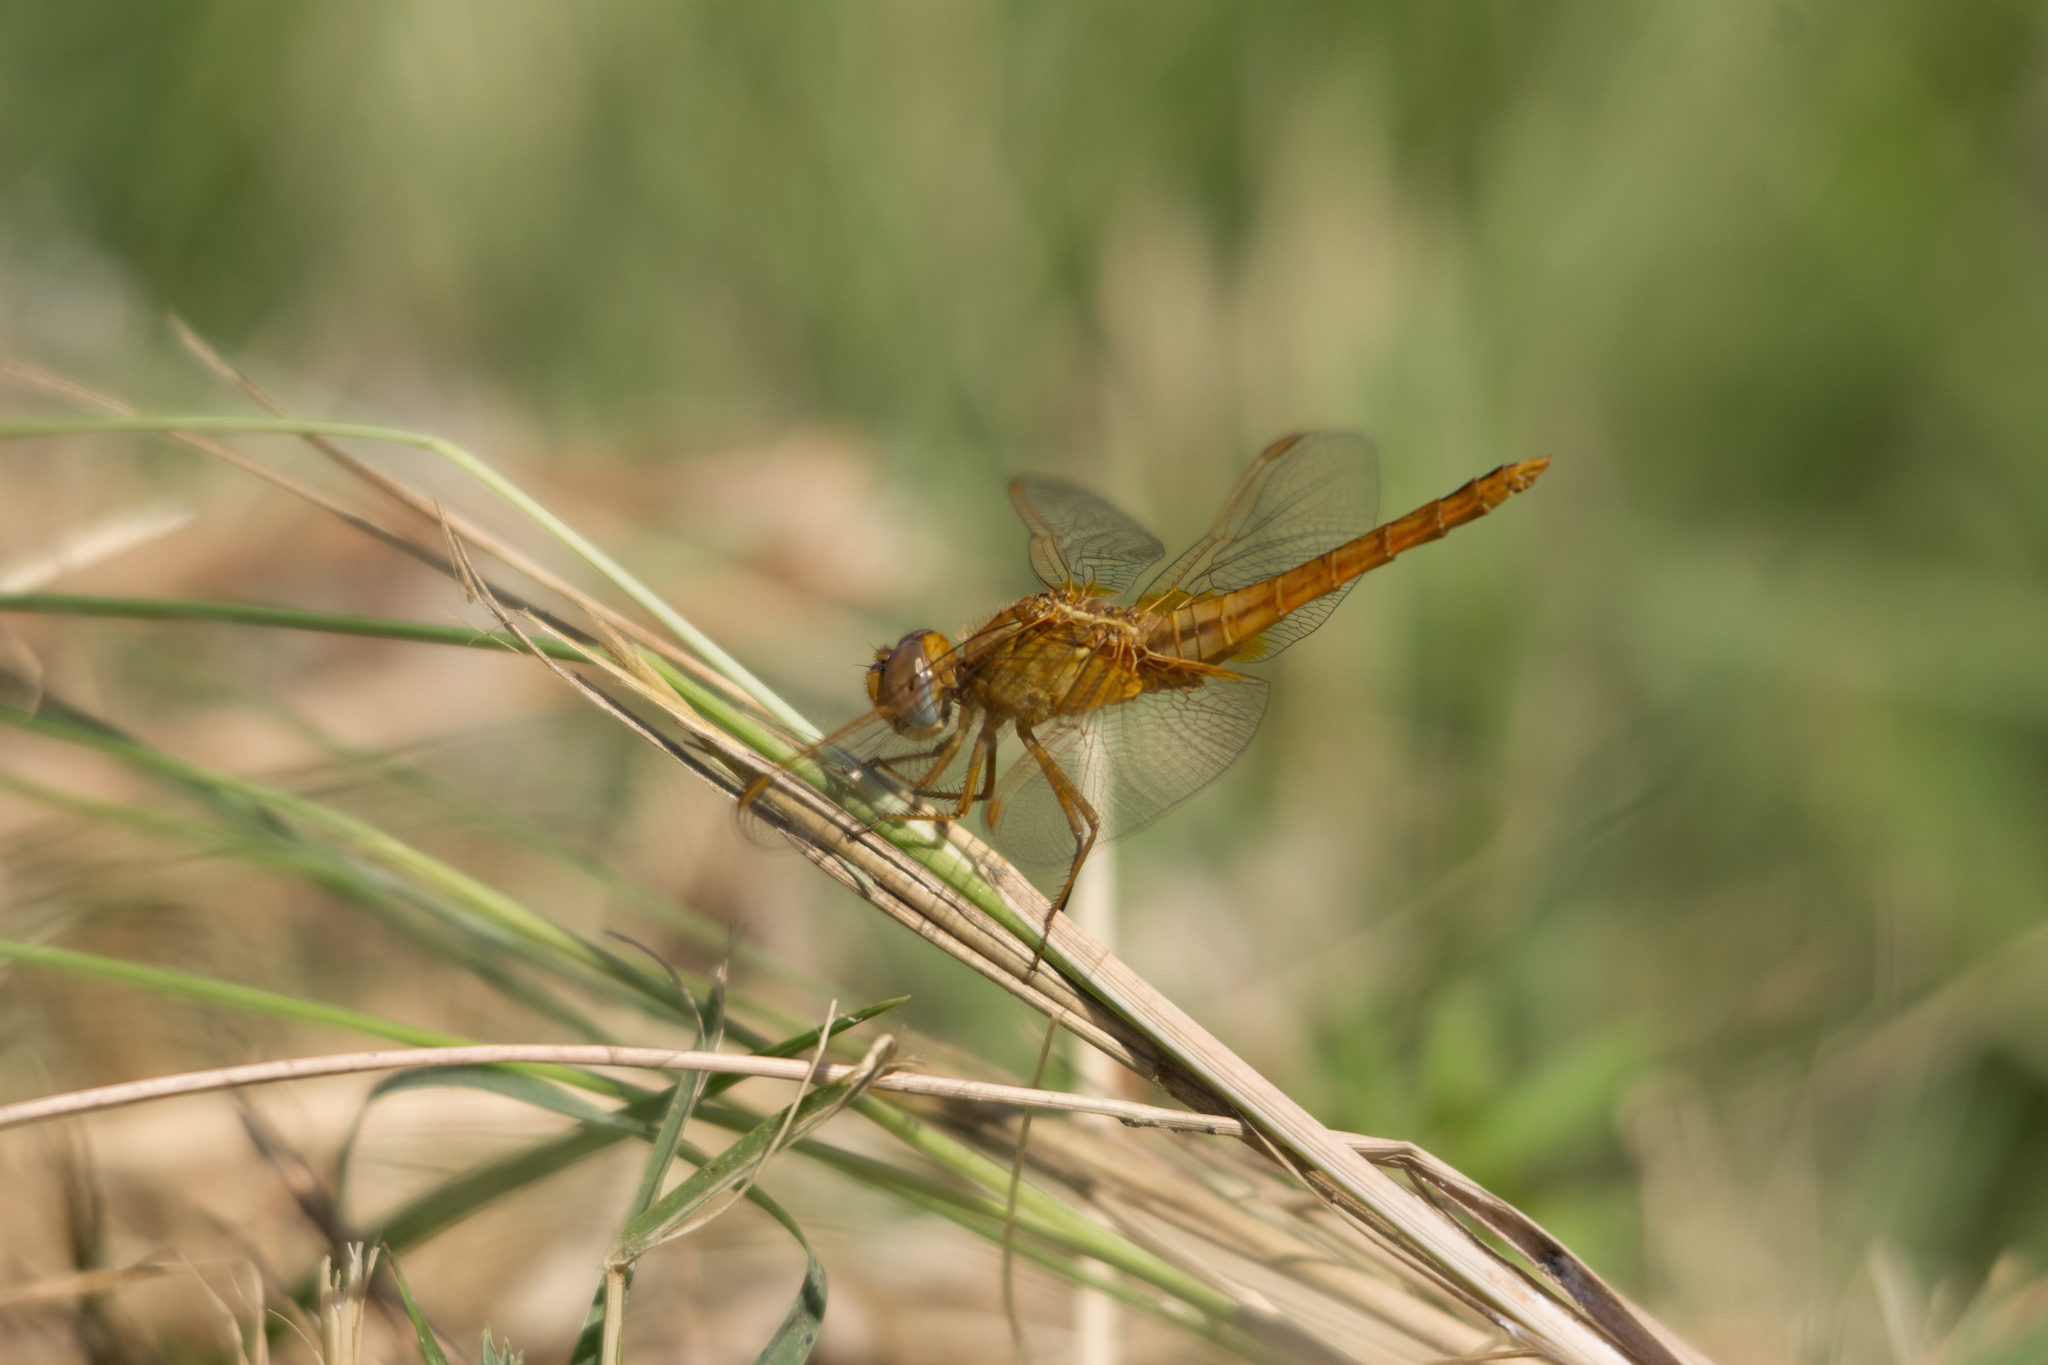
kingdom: Animalia
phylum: Arthropoda
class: Insecta
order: Odonata
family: Libellulidae
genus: Crocothemis
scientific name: Crocothemis erythraea
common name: Scarlet dragonfly
